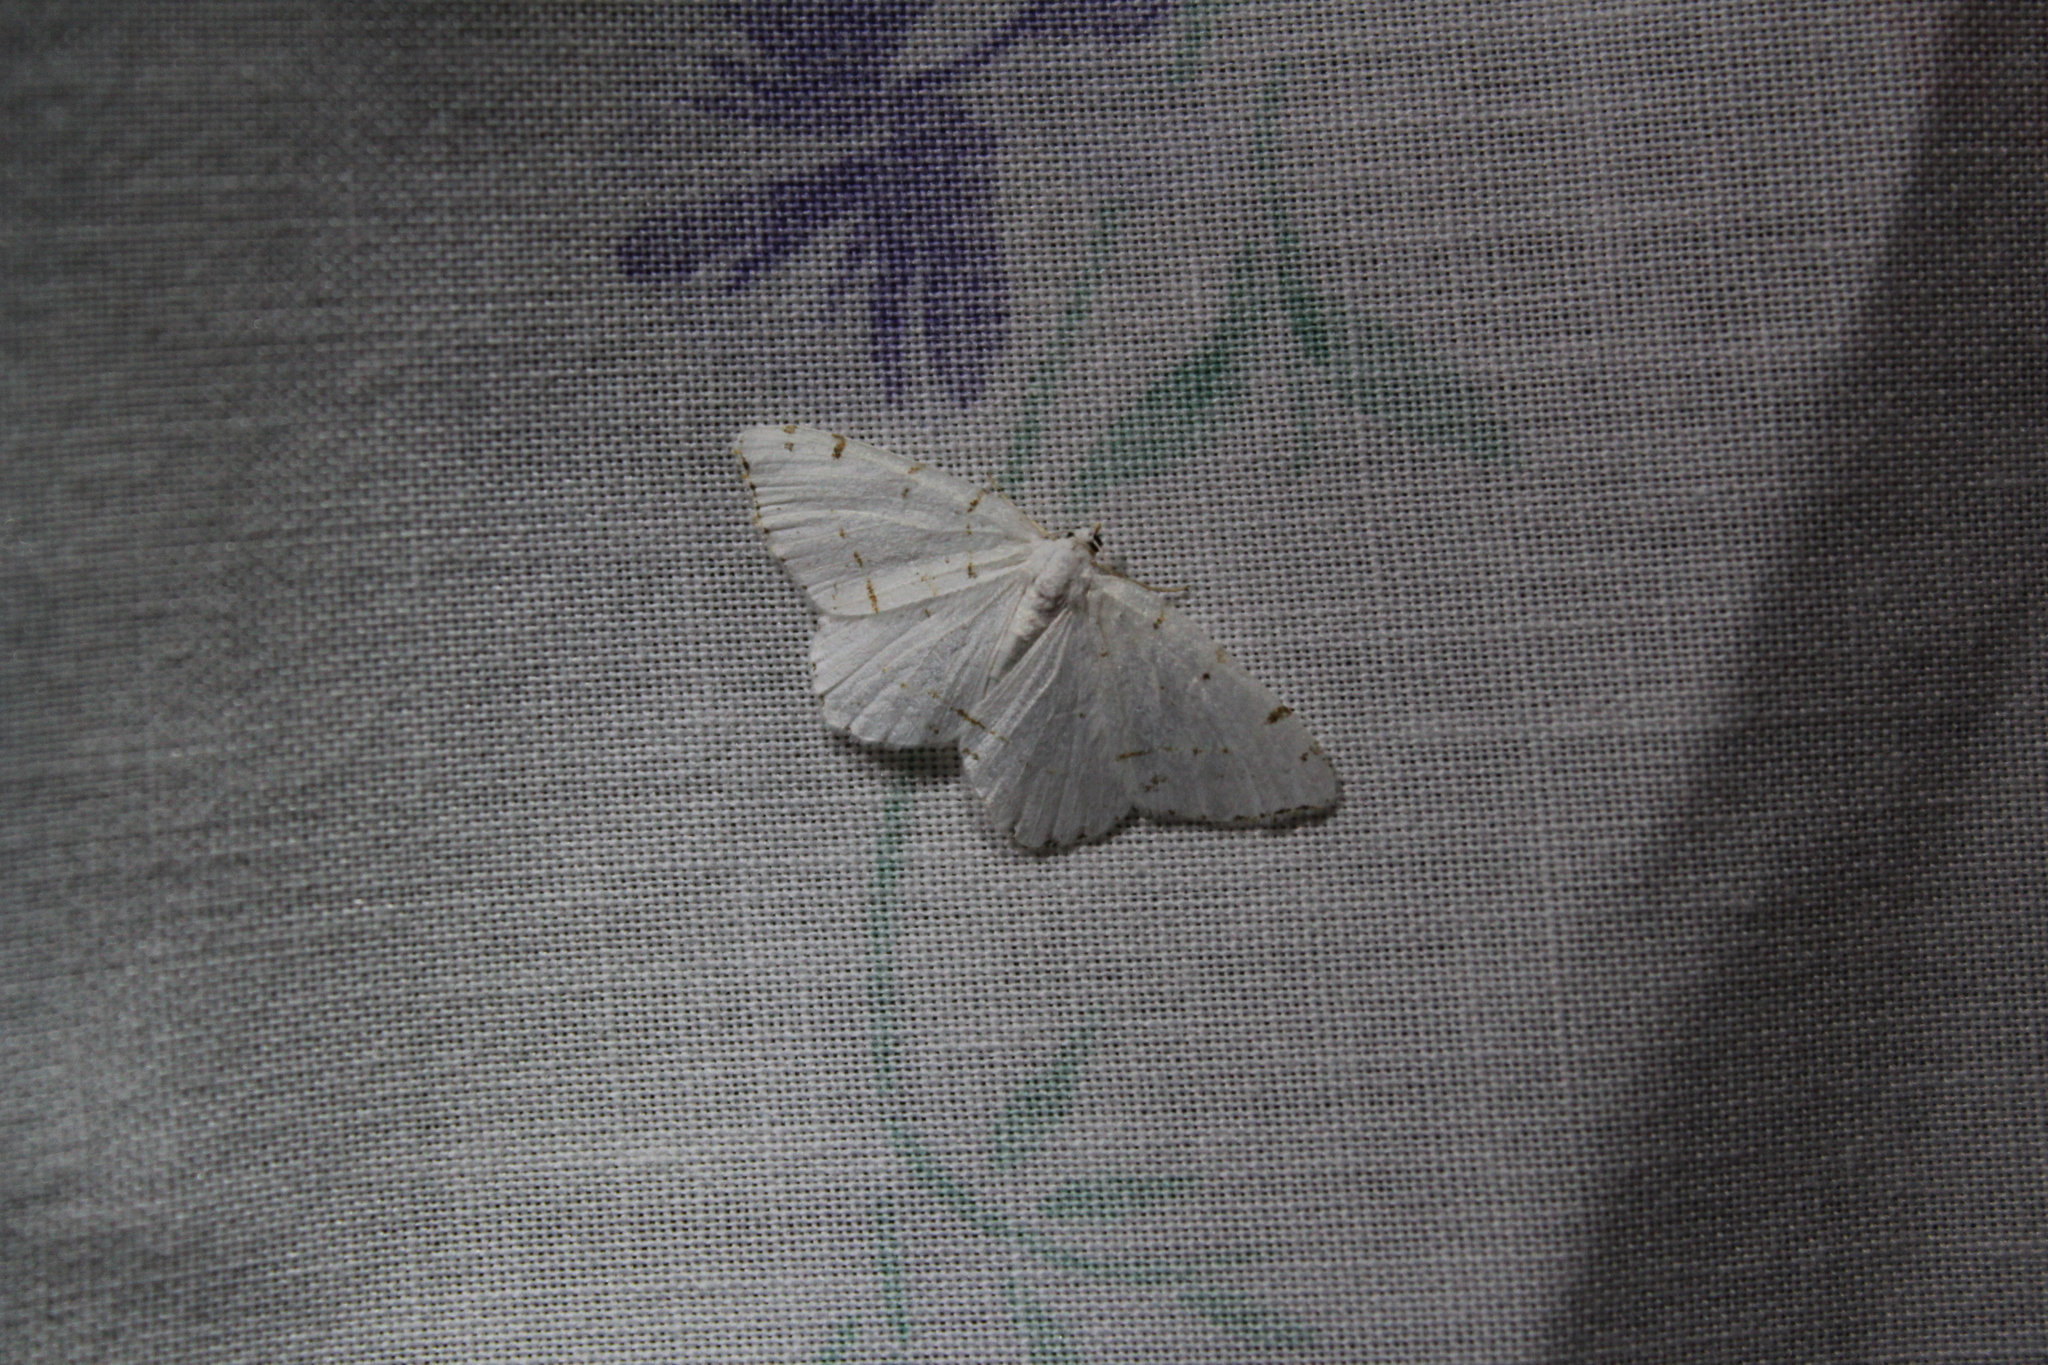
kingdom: Animalia
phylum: Arthropoda
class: Insecta
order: Lepidoptera
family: Geometridae
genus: Macaria
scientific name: Macaria pustularia
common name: Lesser maple spanworm moth
